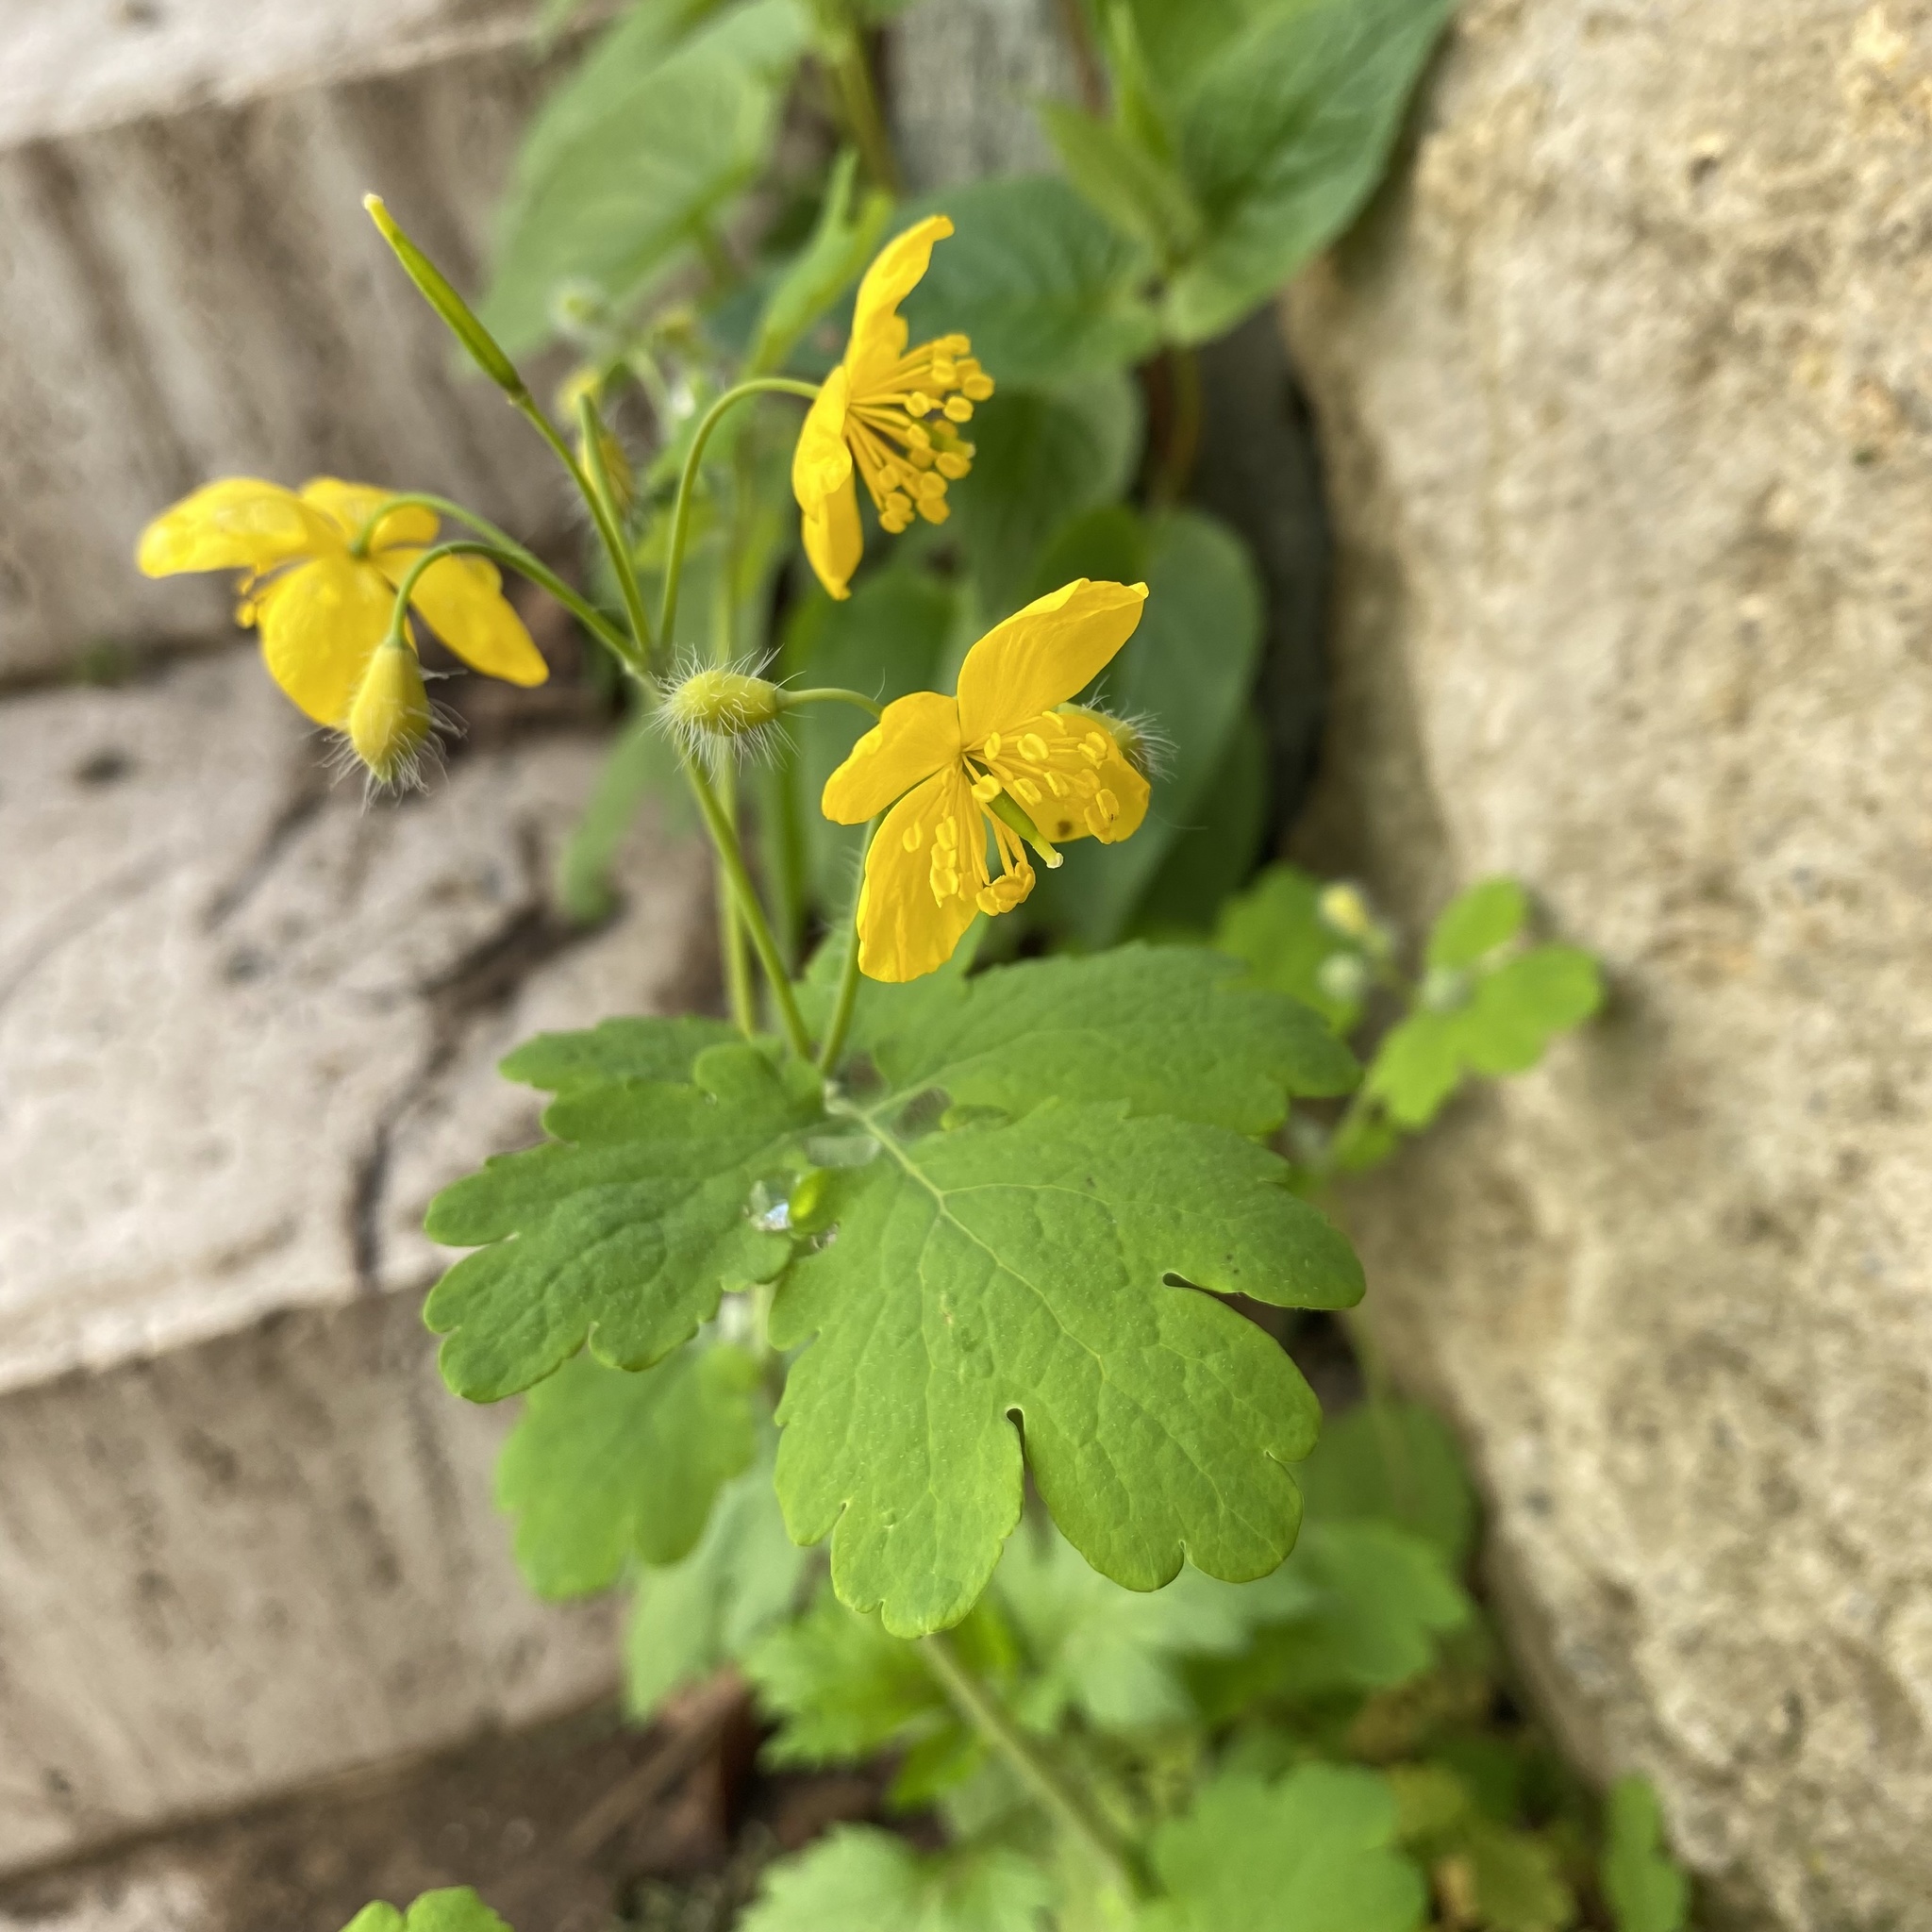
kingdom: Plantae
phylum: Tracheophyta
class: Magnoliopsida
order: Ranunculales
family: Papaveraceae
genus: Chelidonium
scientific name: Chelidonium majus
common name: Greater celandine
